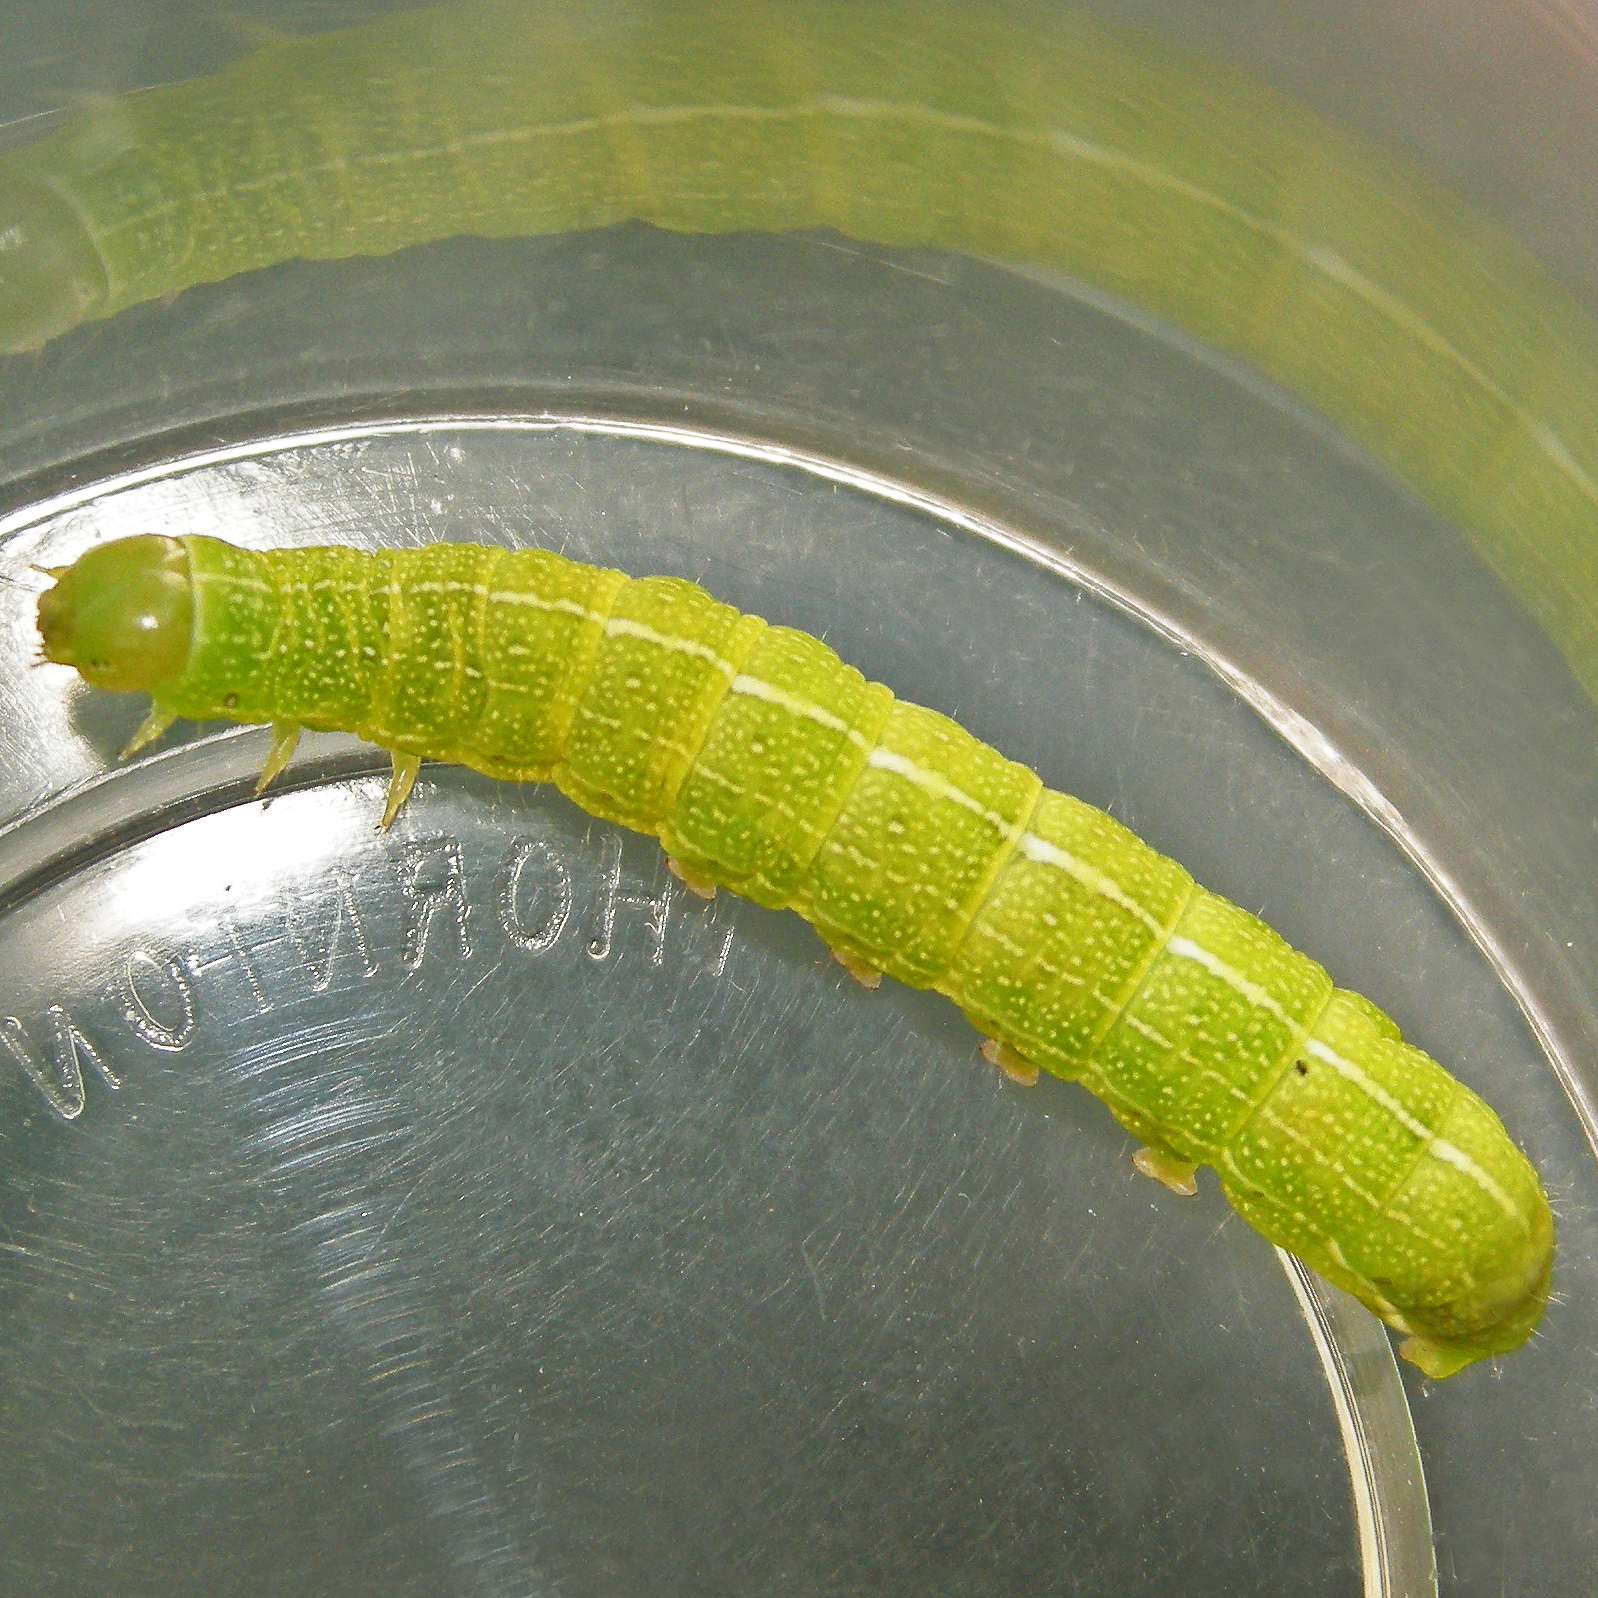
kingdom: Animalia
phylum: Arthropoda
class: Insecta
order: Lepidoptera
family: Noctuidae
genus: Orthosia
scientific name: Orthosia hibisci
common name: Green fruitworm
